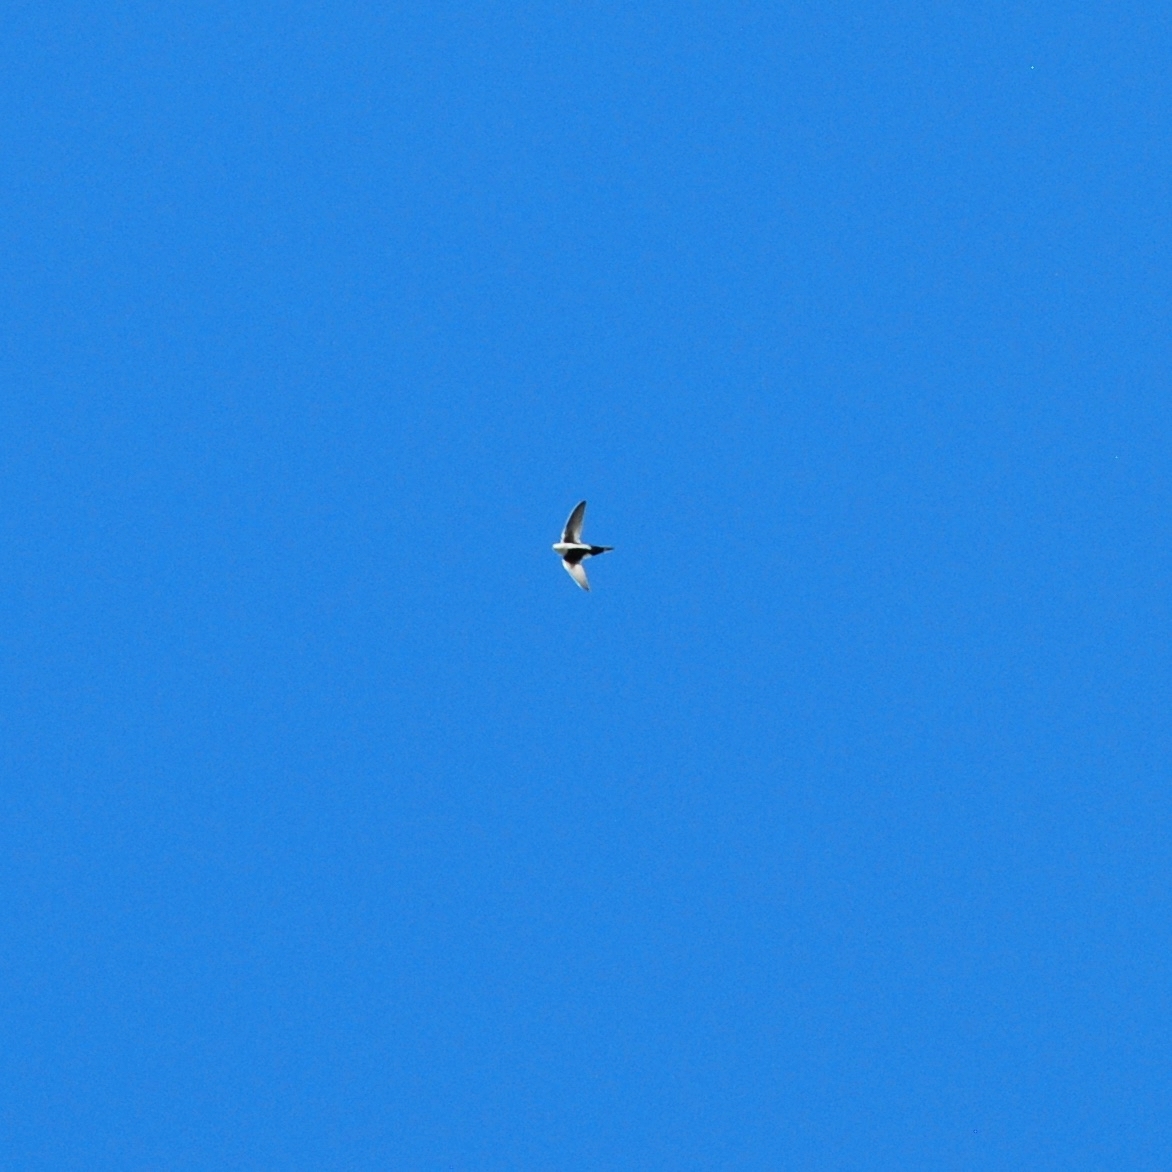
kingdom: Animalia
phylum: Chordata
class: Aves
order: Apodiformes
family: Apodidae
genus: Aeronautes
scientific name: Aeronautes saxatalis
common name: White-throated swift
